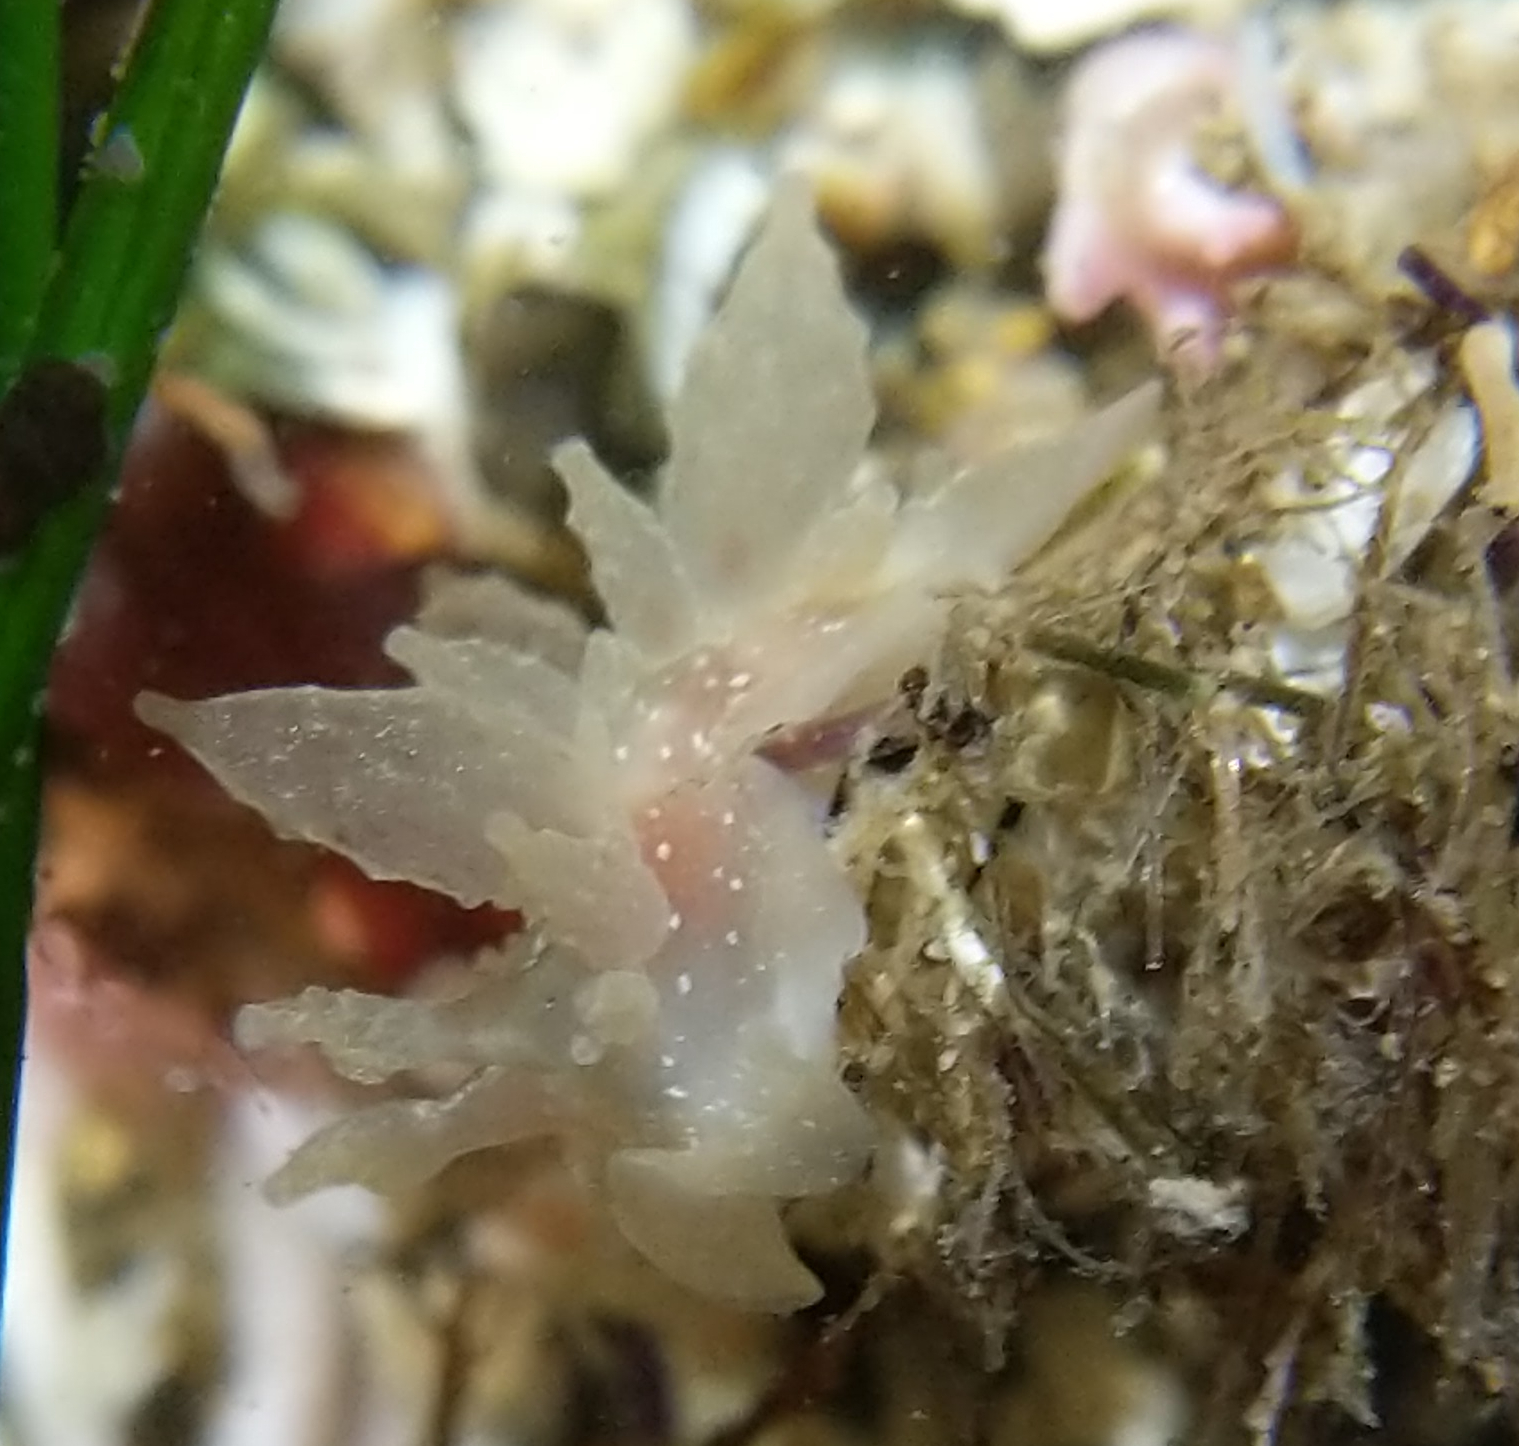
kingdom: Animalia
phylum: Mollusca
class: Gastropoda
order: Nudibranchia
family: Dironidae
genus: Dirona
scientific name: Dirona picta
